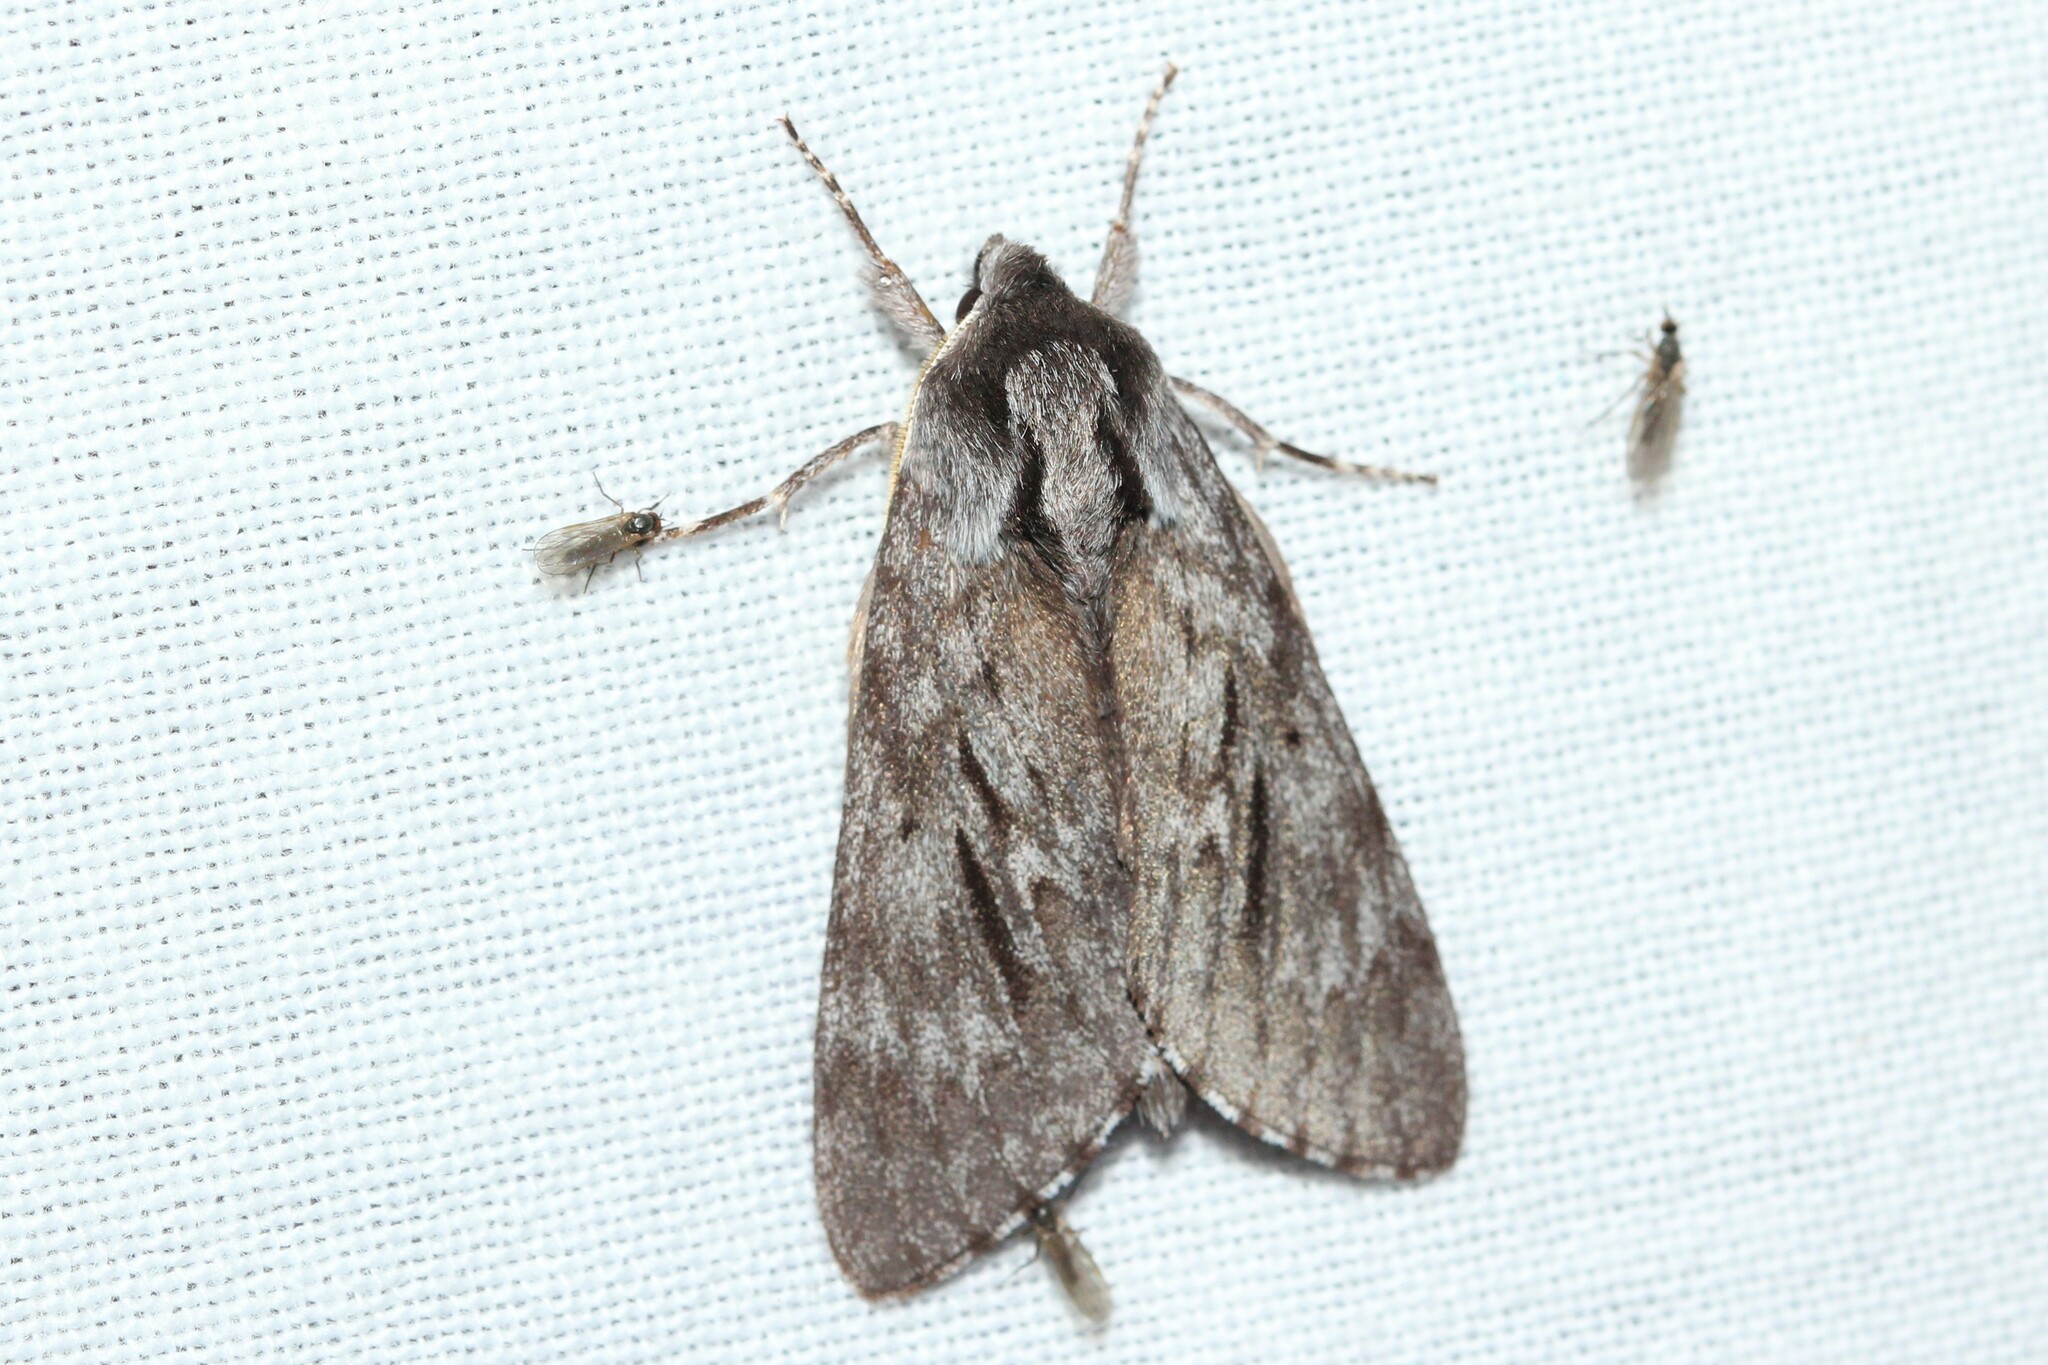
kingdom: Animalia
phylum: Arthropoda
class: Insecta
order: Lepidoptera
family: Sphingidae
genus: Lapara
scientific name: Lapara bombycoides
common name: Northern pine sphinx
